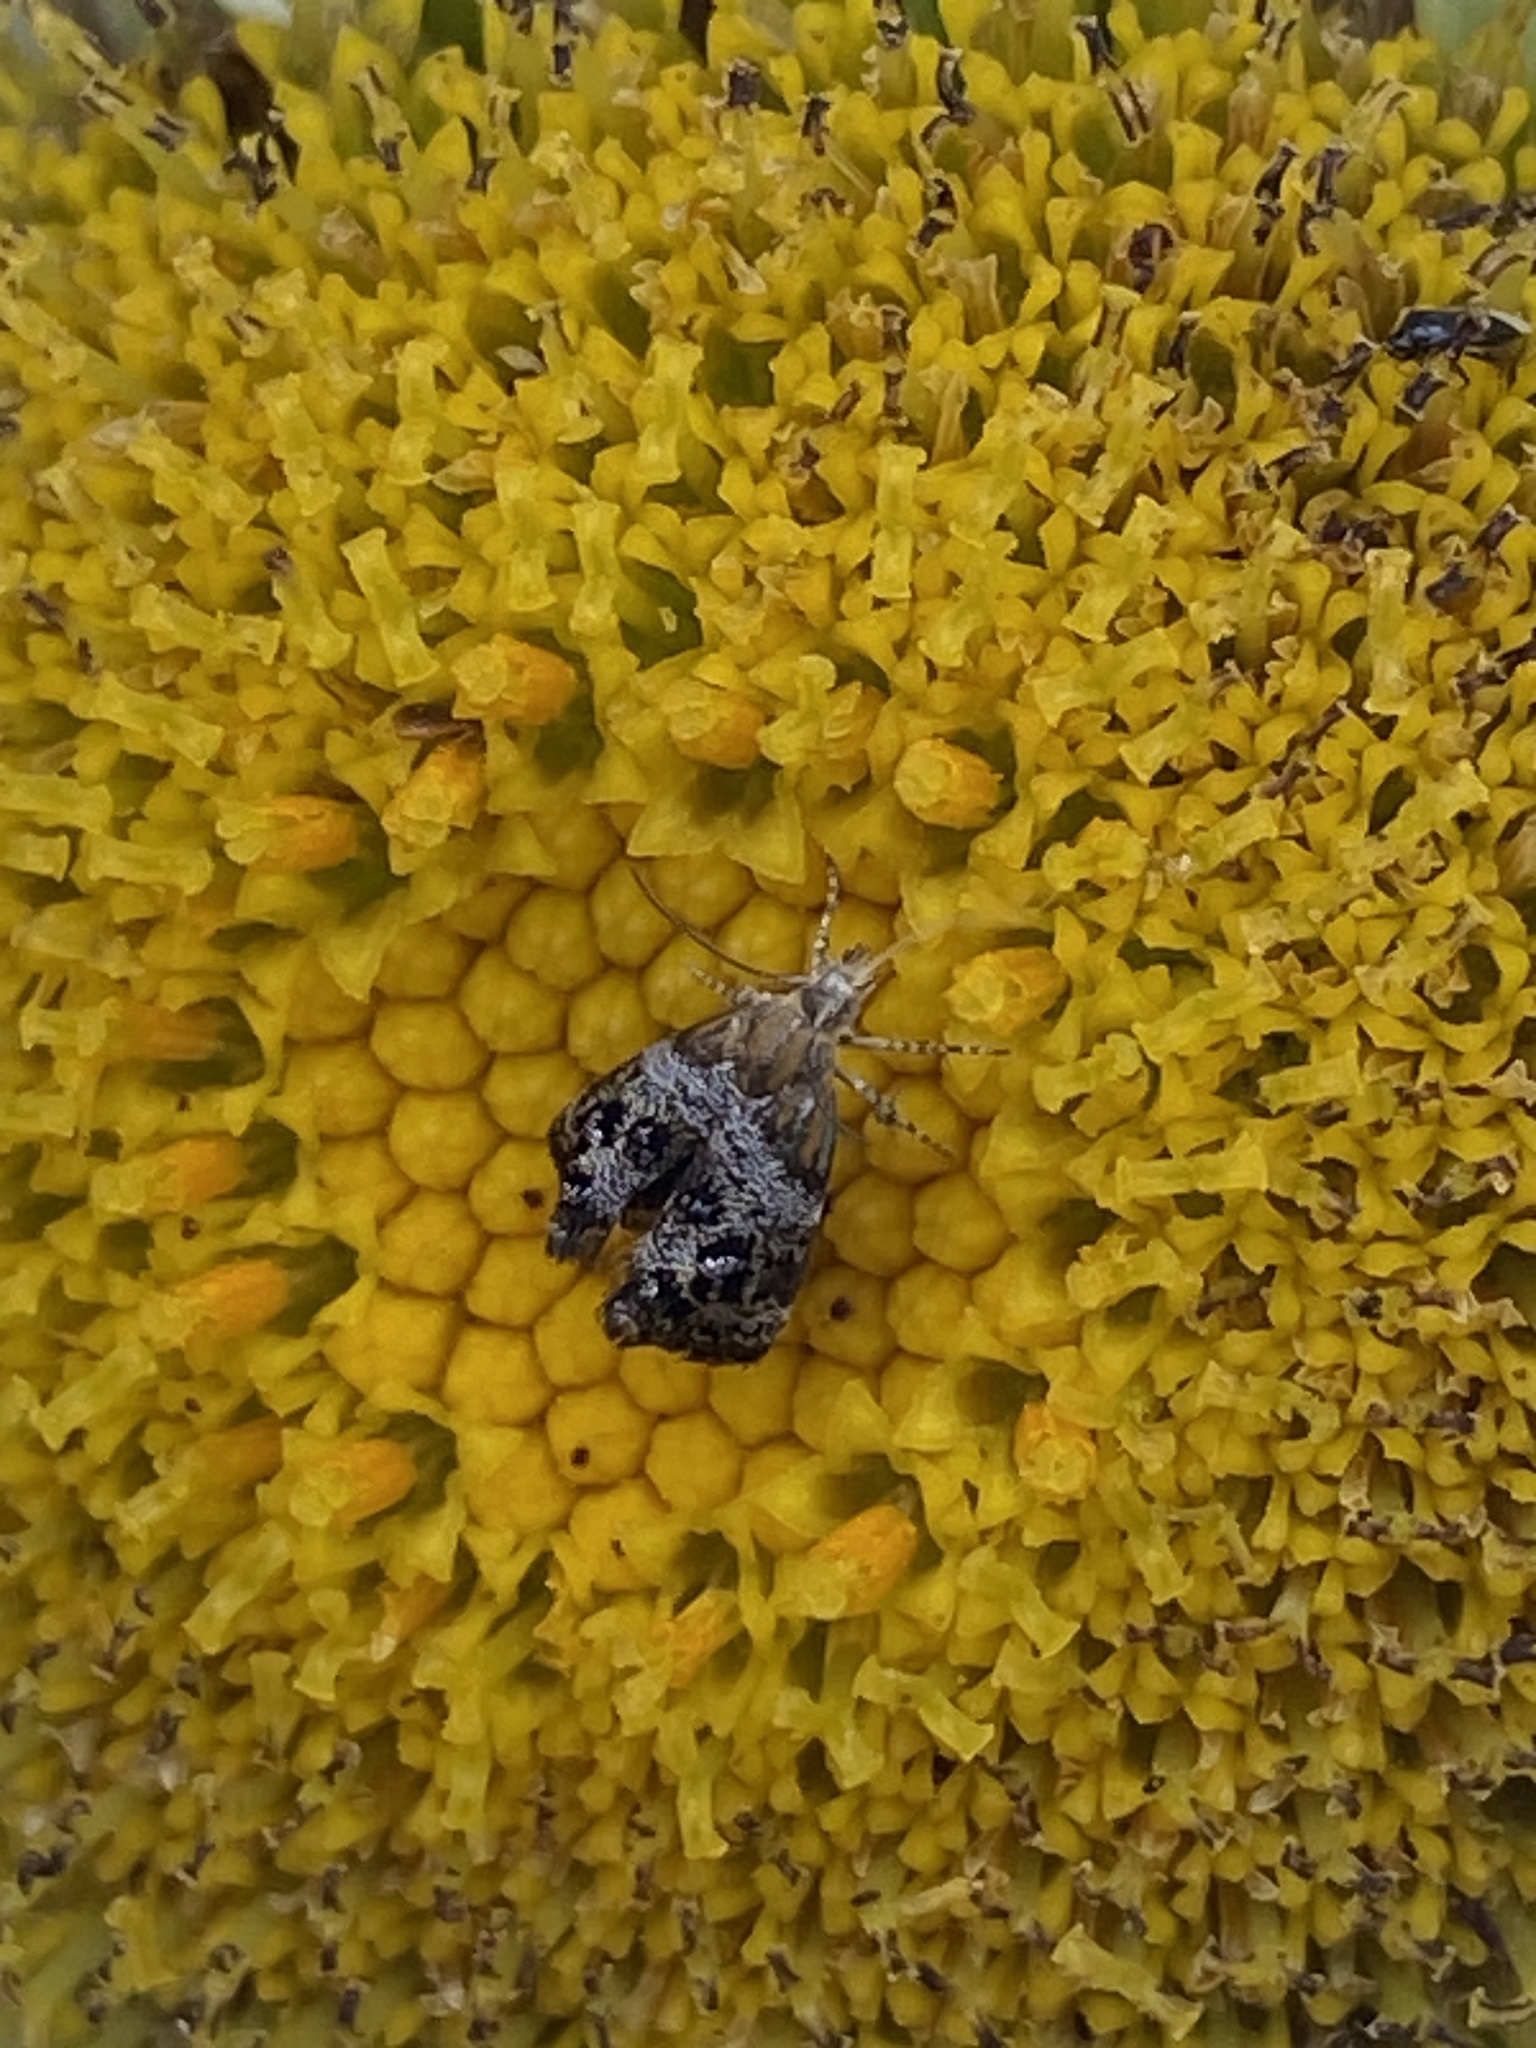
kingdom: Animalia
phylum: Arthropoda
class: Insecta
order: Lepidoptera
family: Choreutidae
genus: Tebenna
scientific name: Tebenna gnaphaliella
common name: Everlasting tebenna moth
